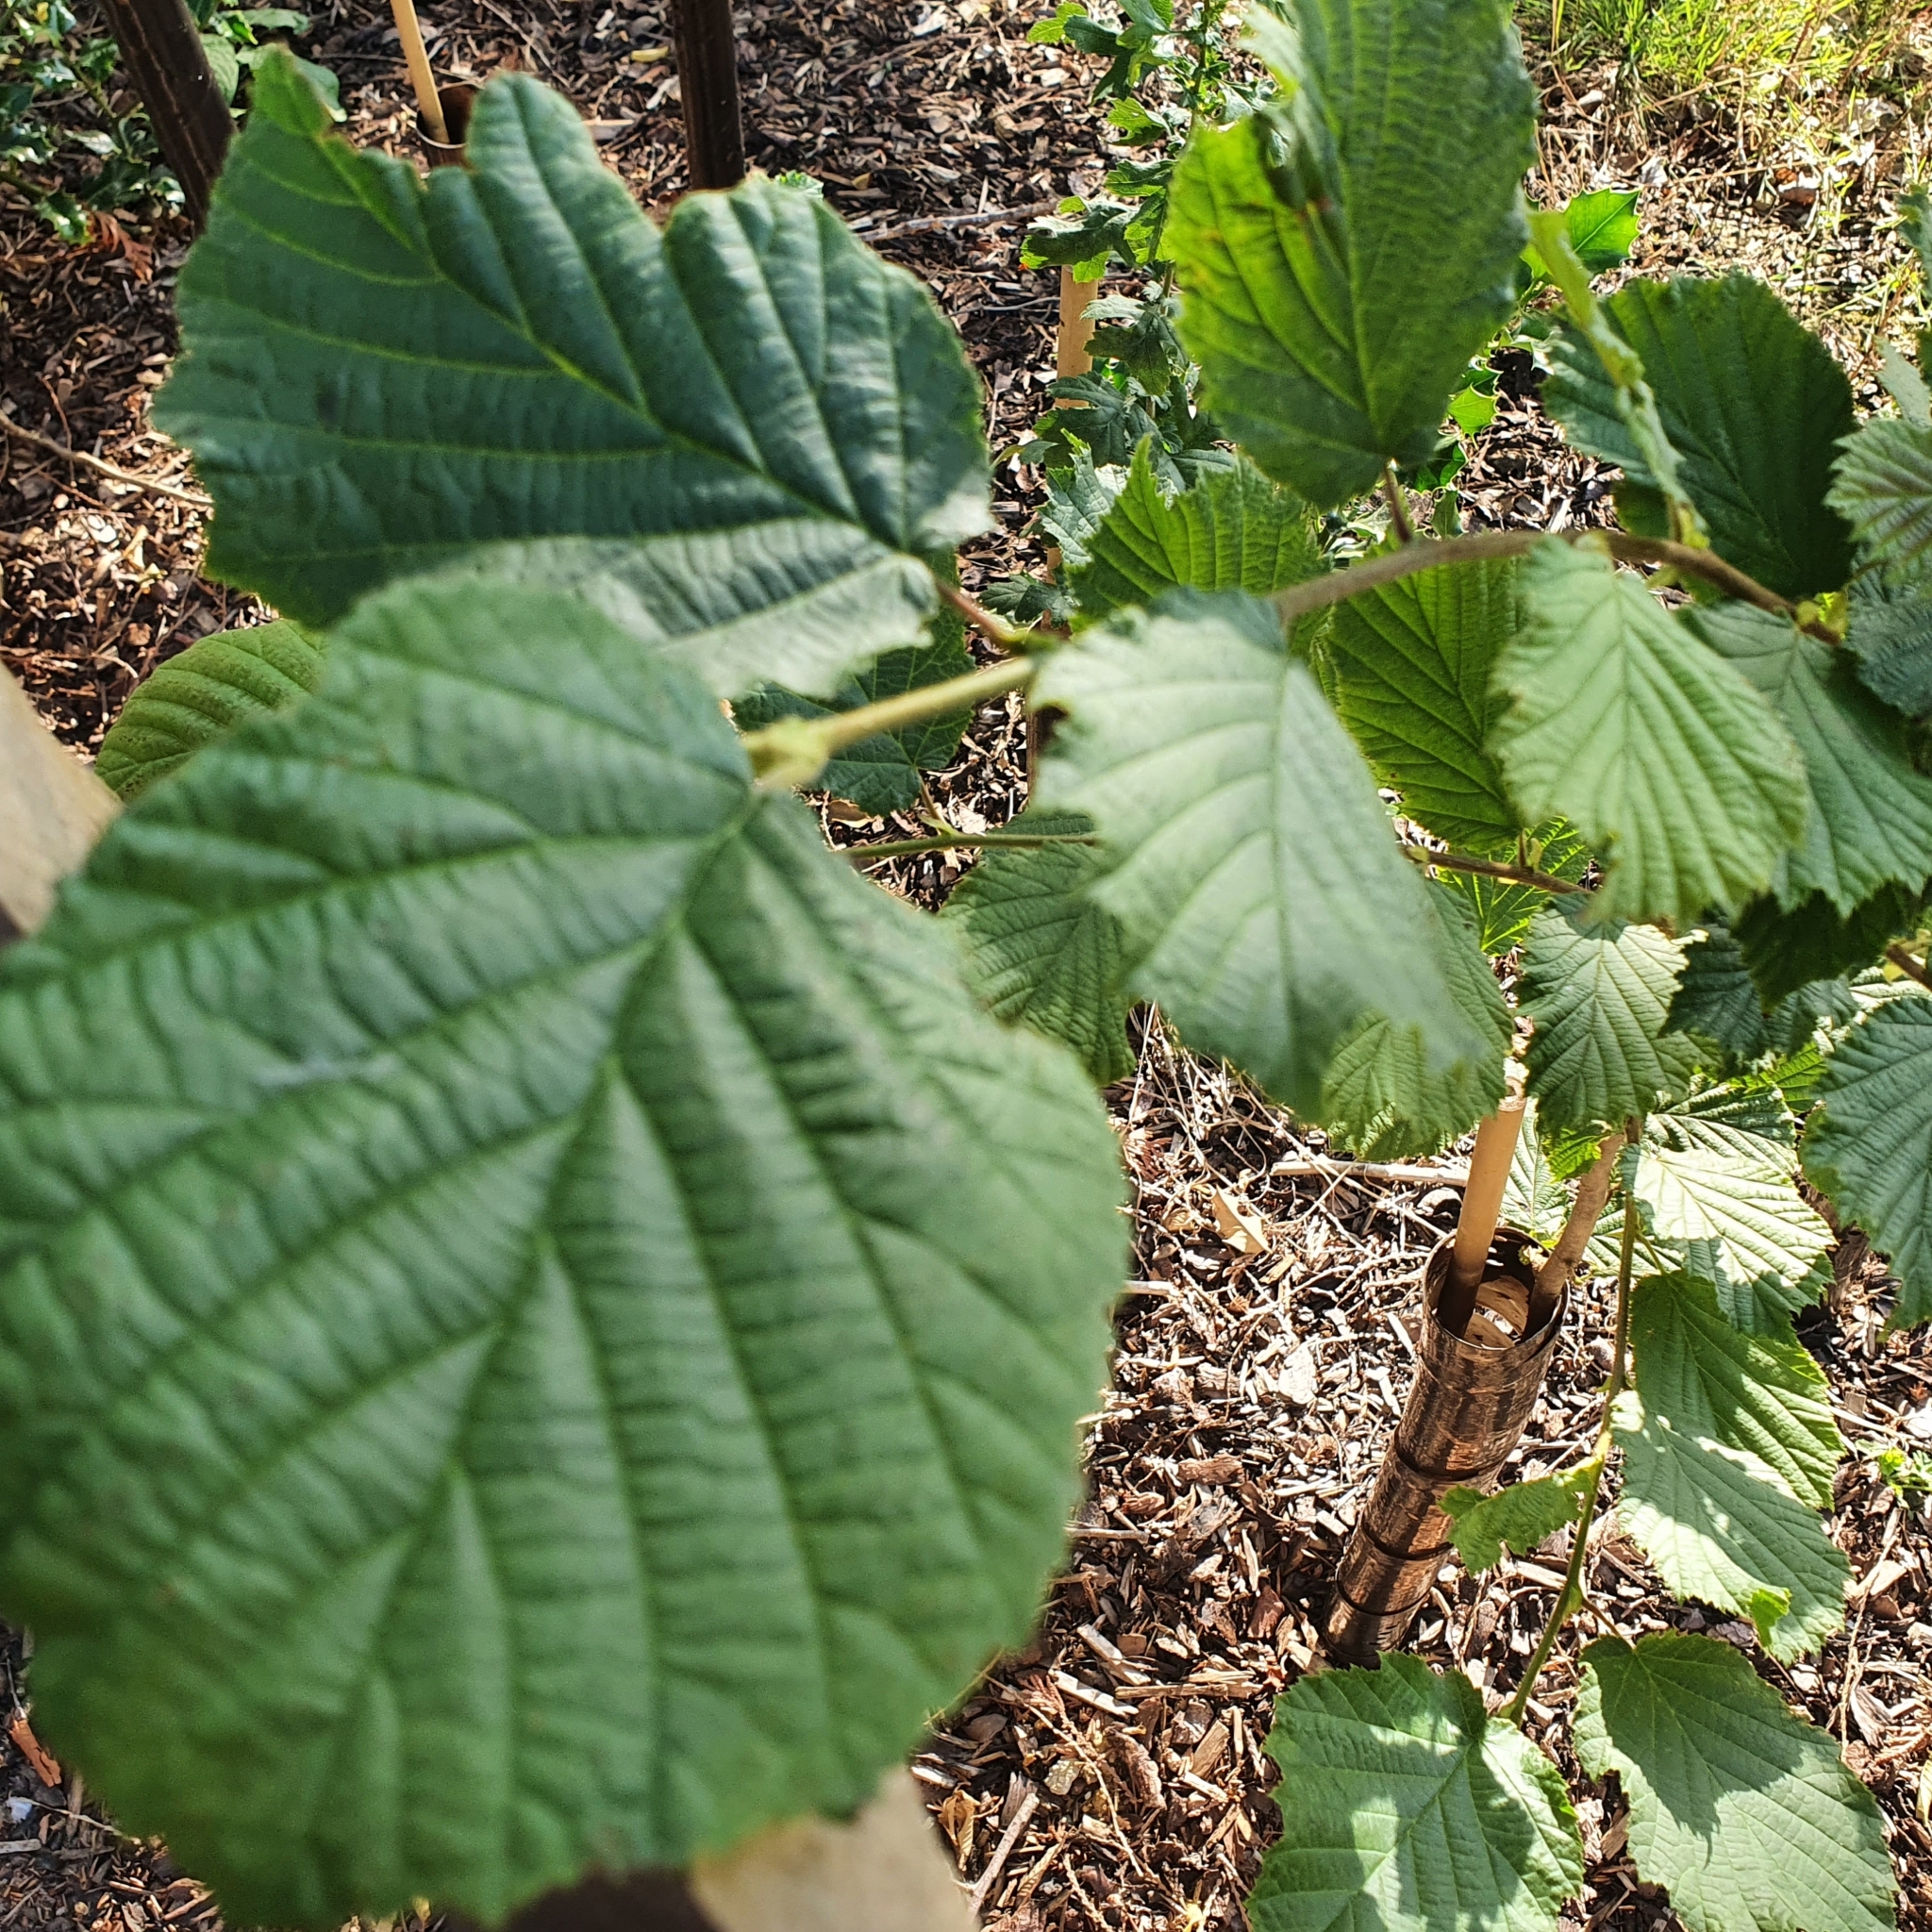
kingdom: Plantae
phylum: Tracheophyta
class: Magnoliopsida
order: Fagales
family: Betulaceae
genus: Corylus
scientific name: Corylus avellana
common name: European hazel
